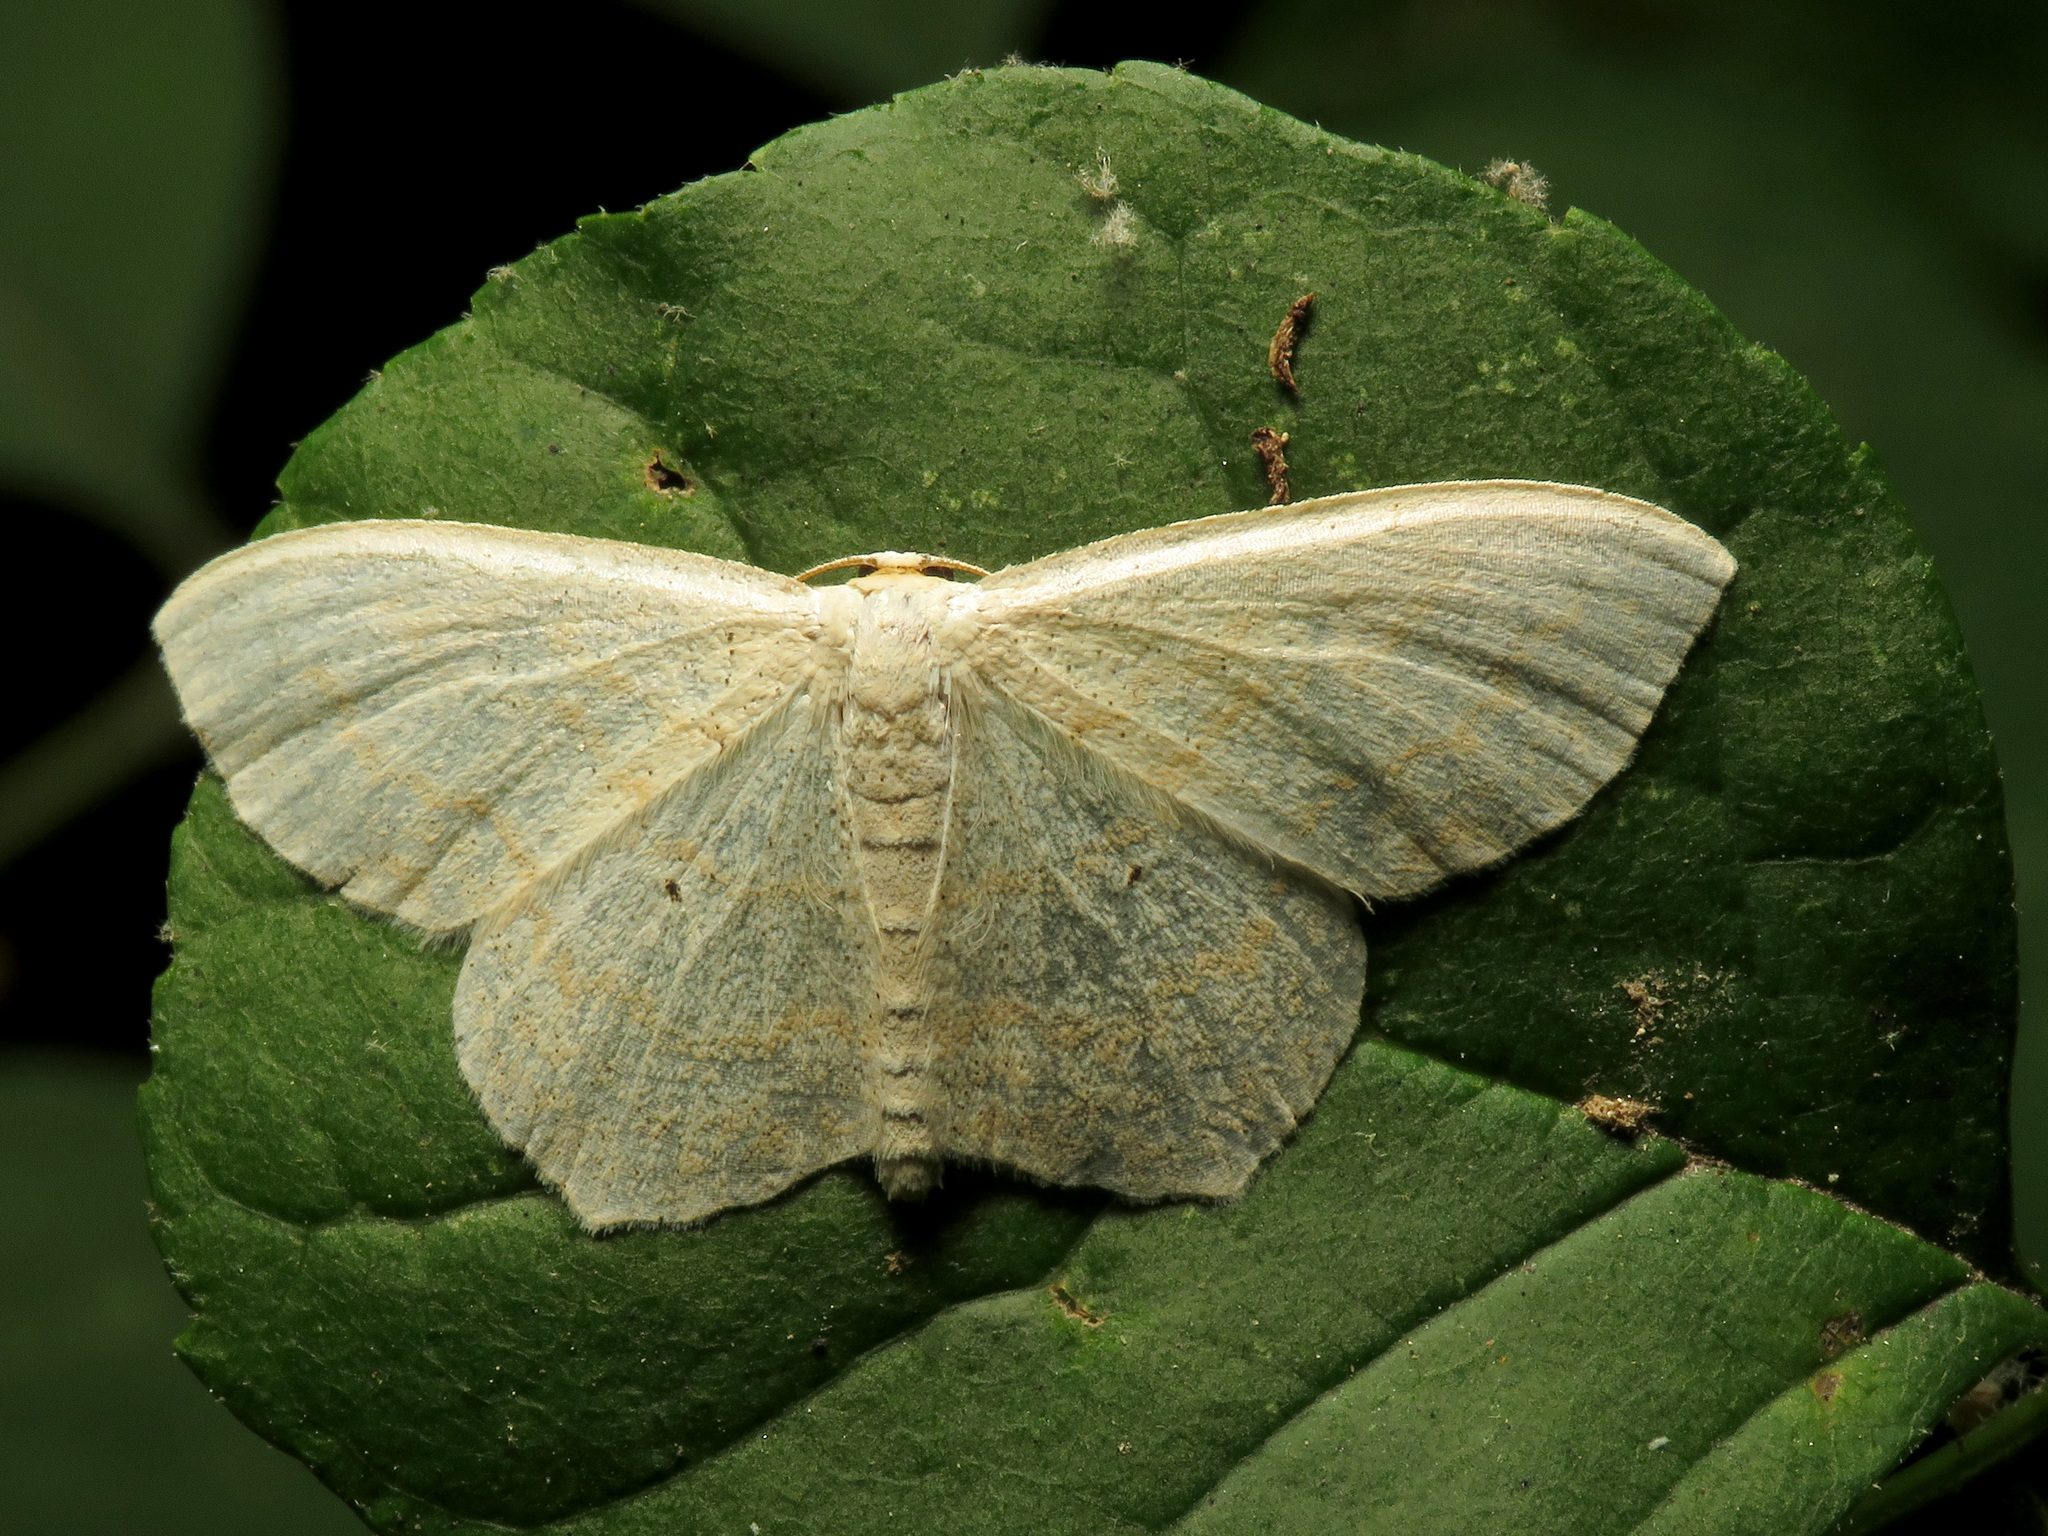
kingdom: Animalia
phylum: Arthropoda
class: Insecta
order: Lepidoptera
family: Geometridae
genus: Scopula
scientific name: Scopula limboundata
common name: Large lace border
